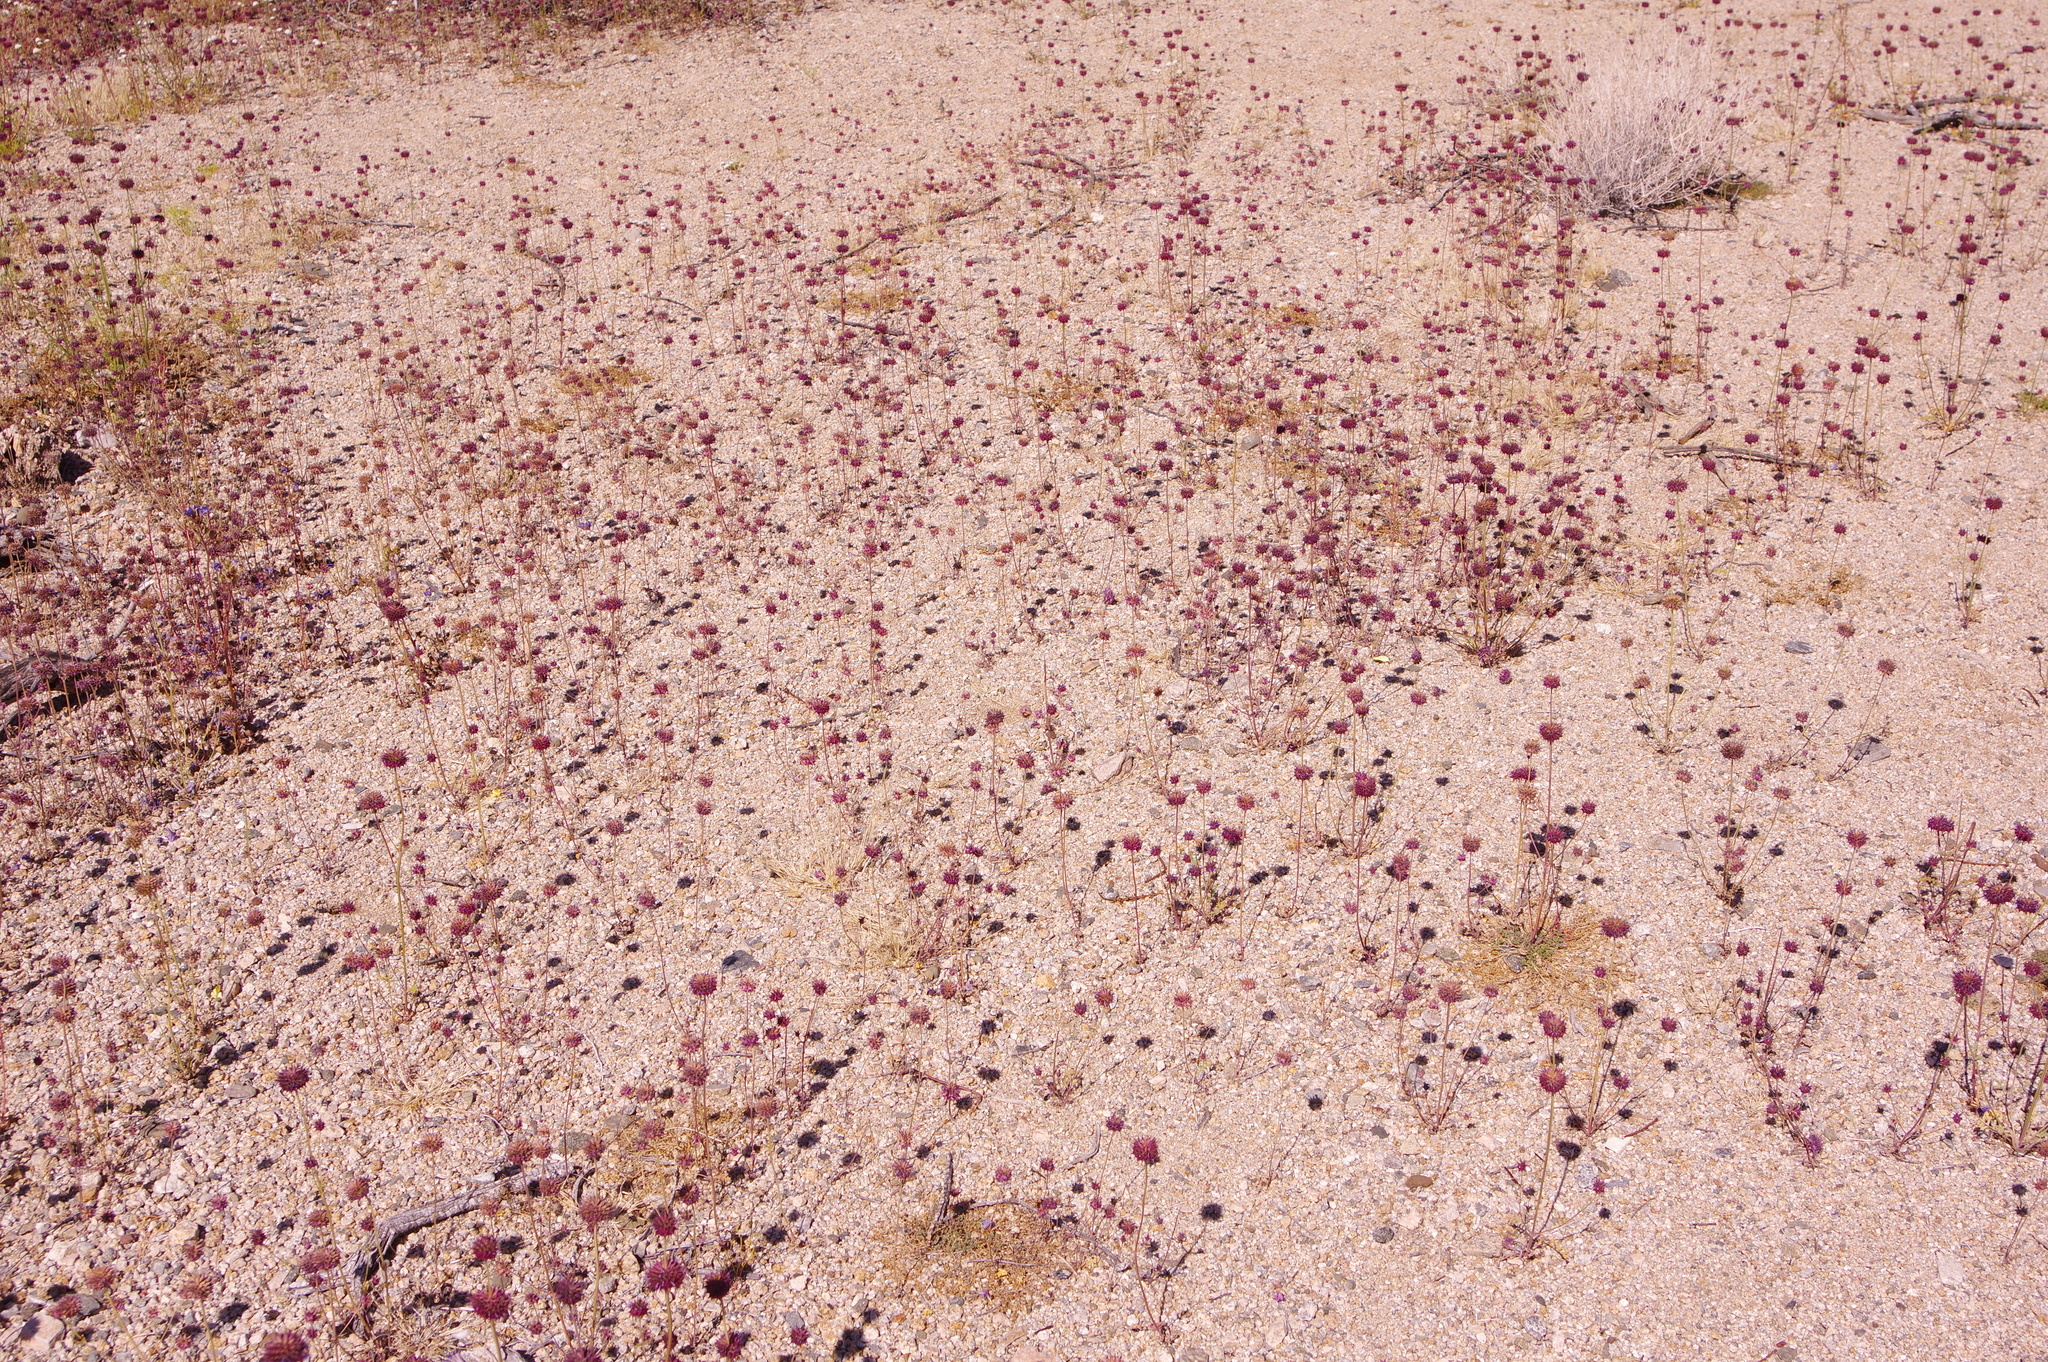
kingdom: Plantae
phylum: Tracheophyta
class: Magnoliopsida
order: Lamiales
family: Lamiaceae
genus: Salvia
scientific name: Salvia columbariae
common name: Chia
